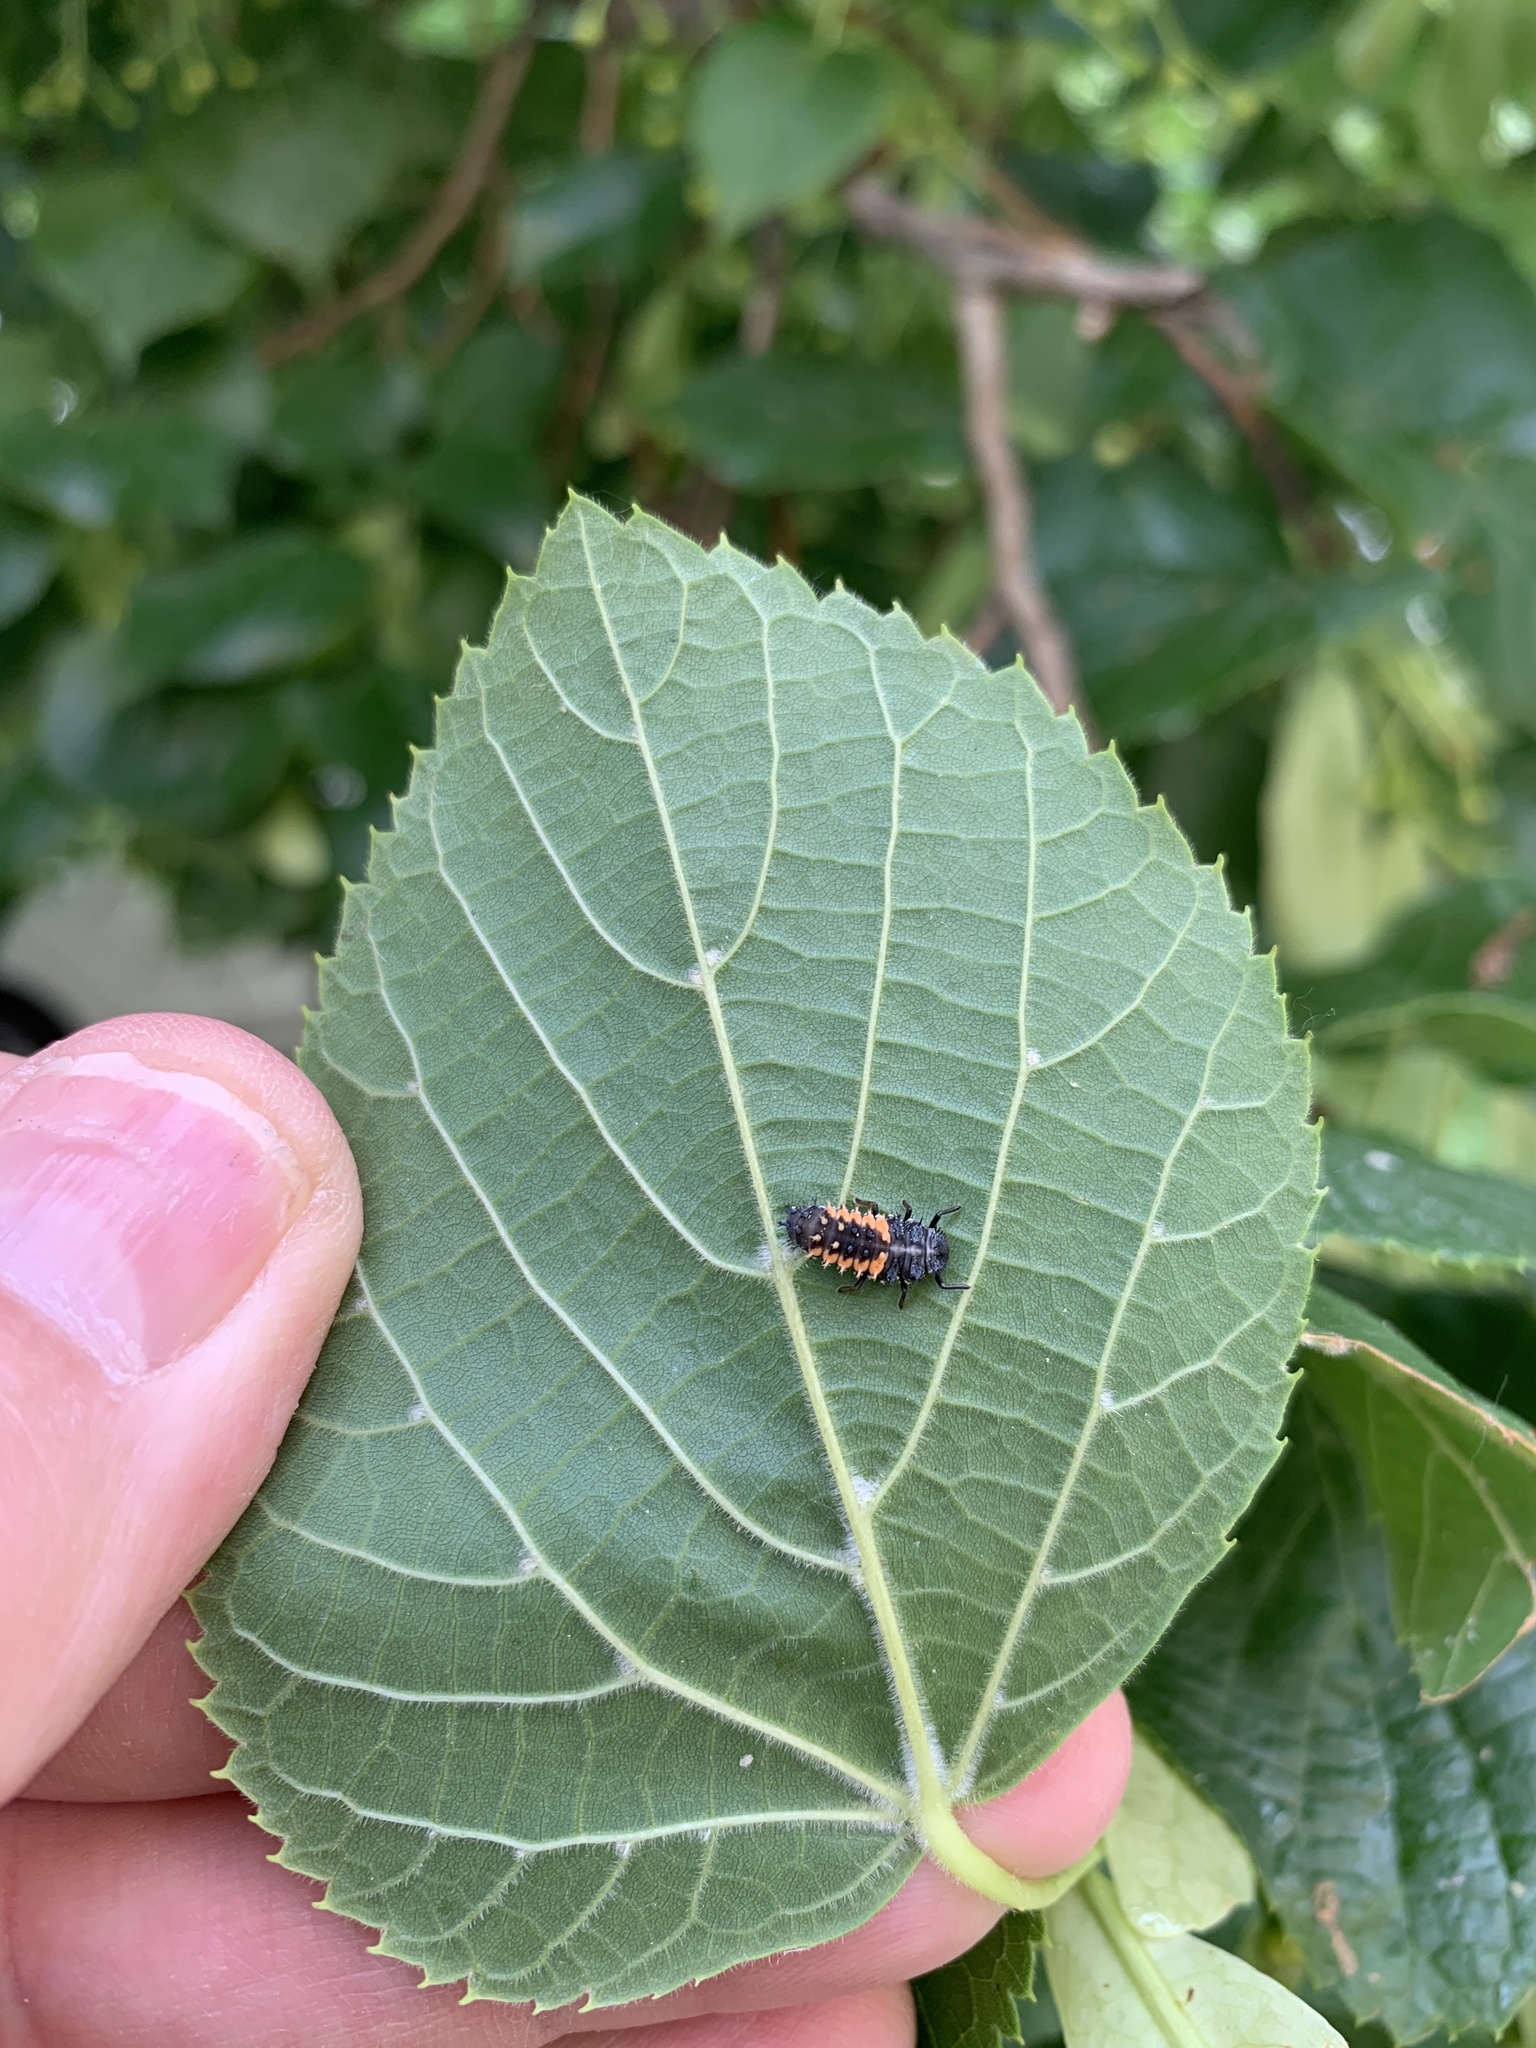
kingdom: Animalia
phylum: Arthropoda
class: Insecta
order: Coleoptera
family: Coccinellidae
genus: Harmonia
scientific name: Harmonia axyridis
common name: Harlequin ladybird
